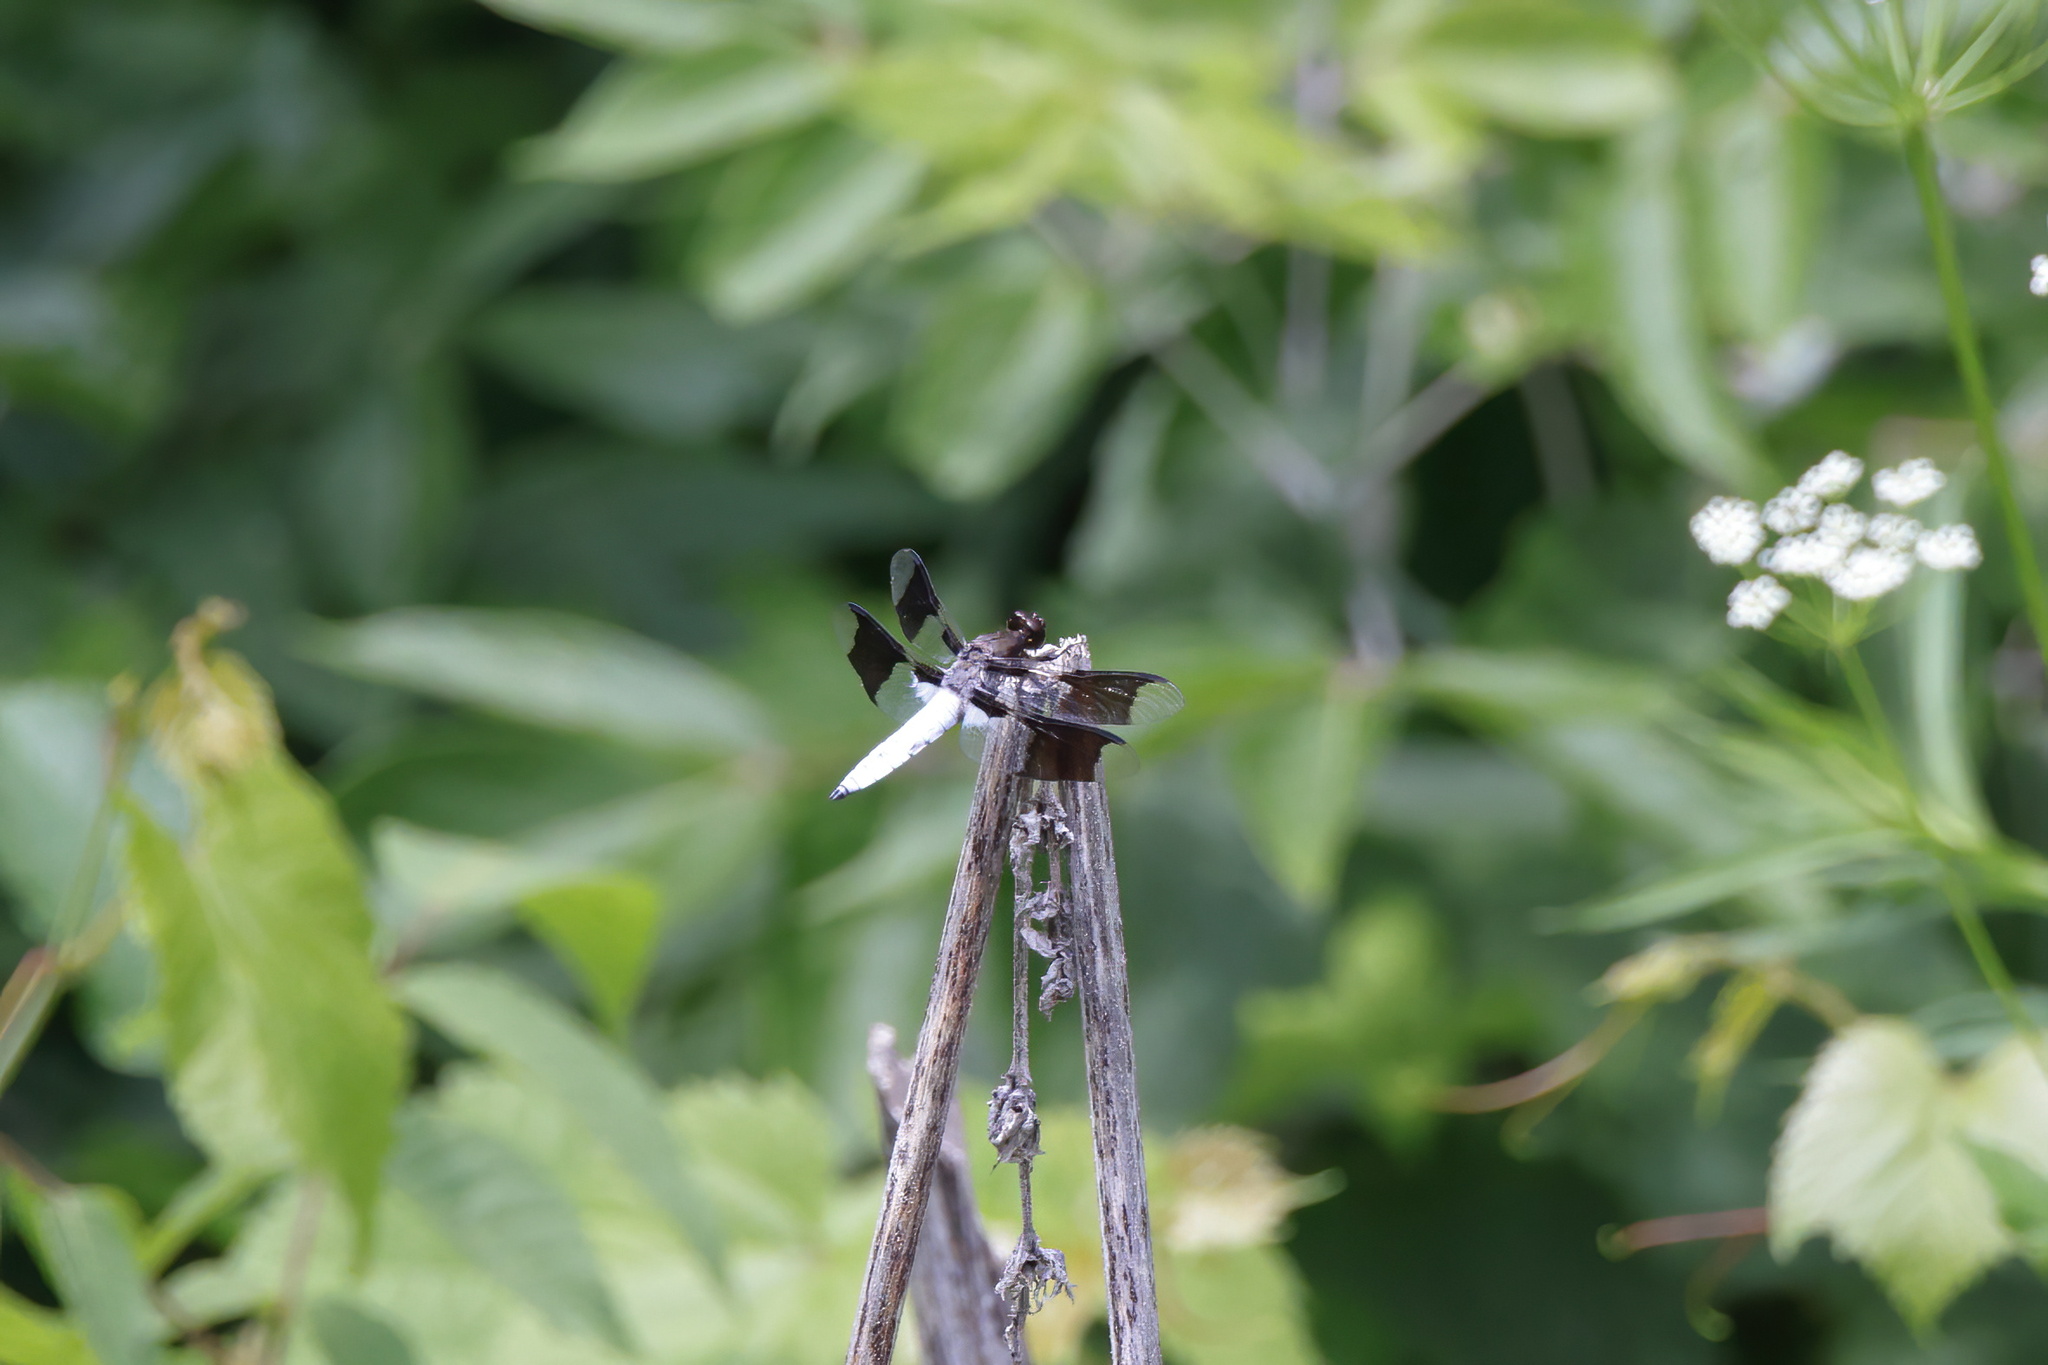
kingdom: Animalia
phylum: Arthropoda
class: Insecta
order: Odonata
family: Libellulidae
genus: Plathemis
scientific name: Plathemis lydia
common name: Common whitetail
